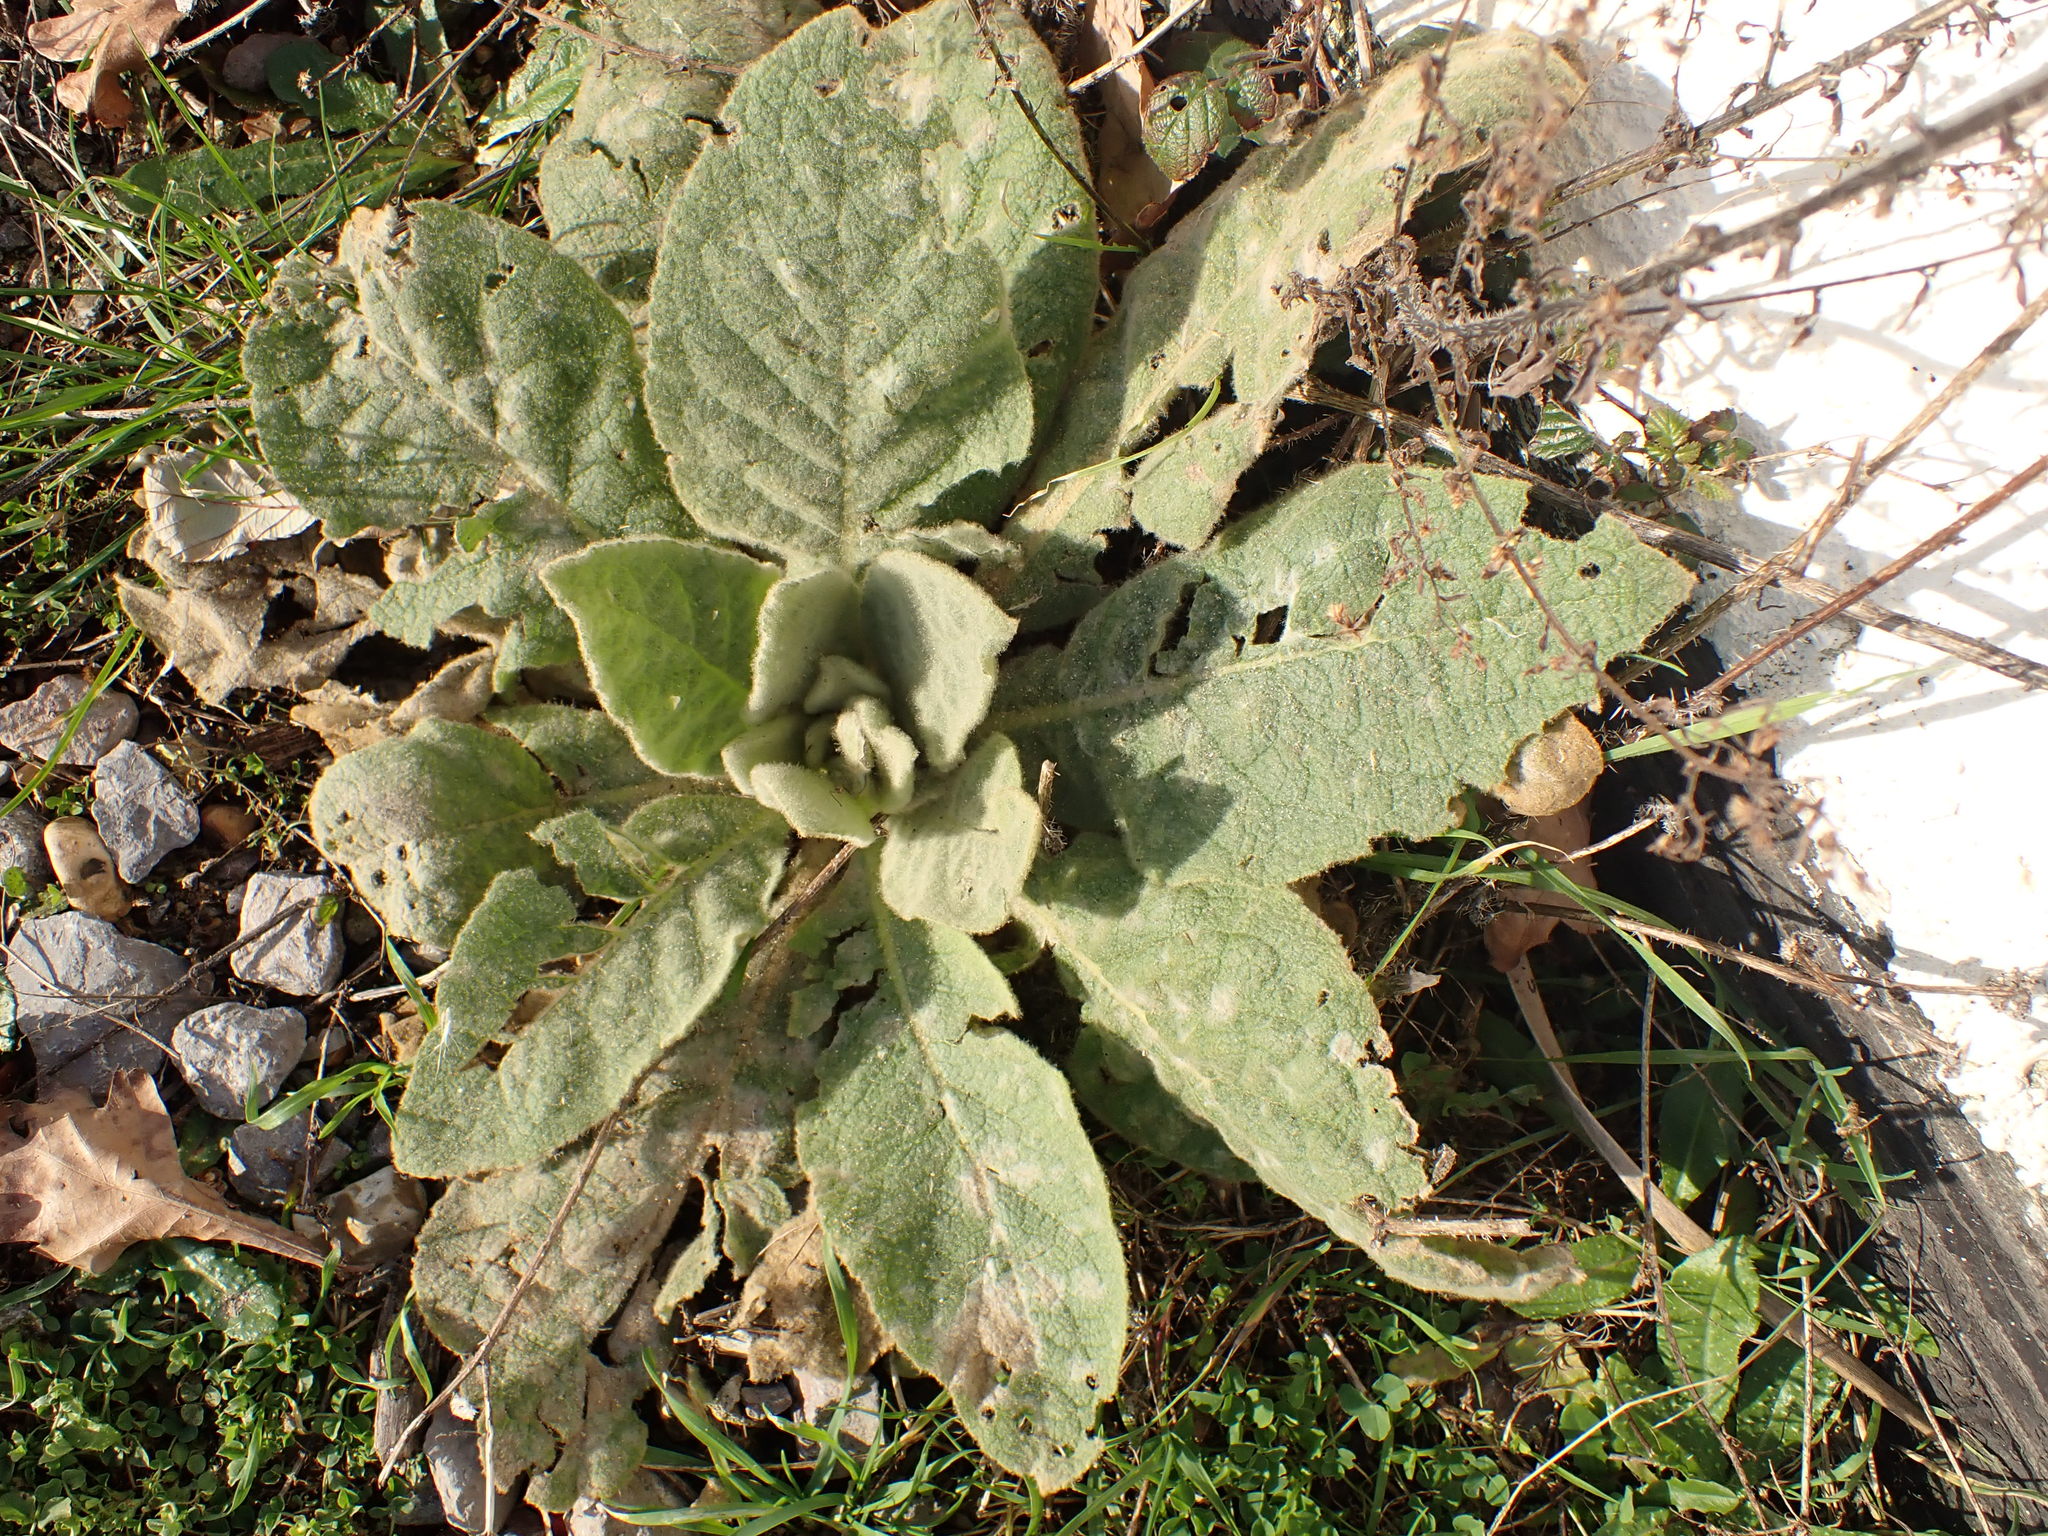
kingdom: Plantae
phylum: Tracheophyta
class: Magnoliopsida
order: Lamiales
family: Scrophulariaceae
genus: Verbascum
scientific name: Verbascum thapsus
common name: Common mullein
